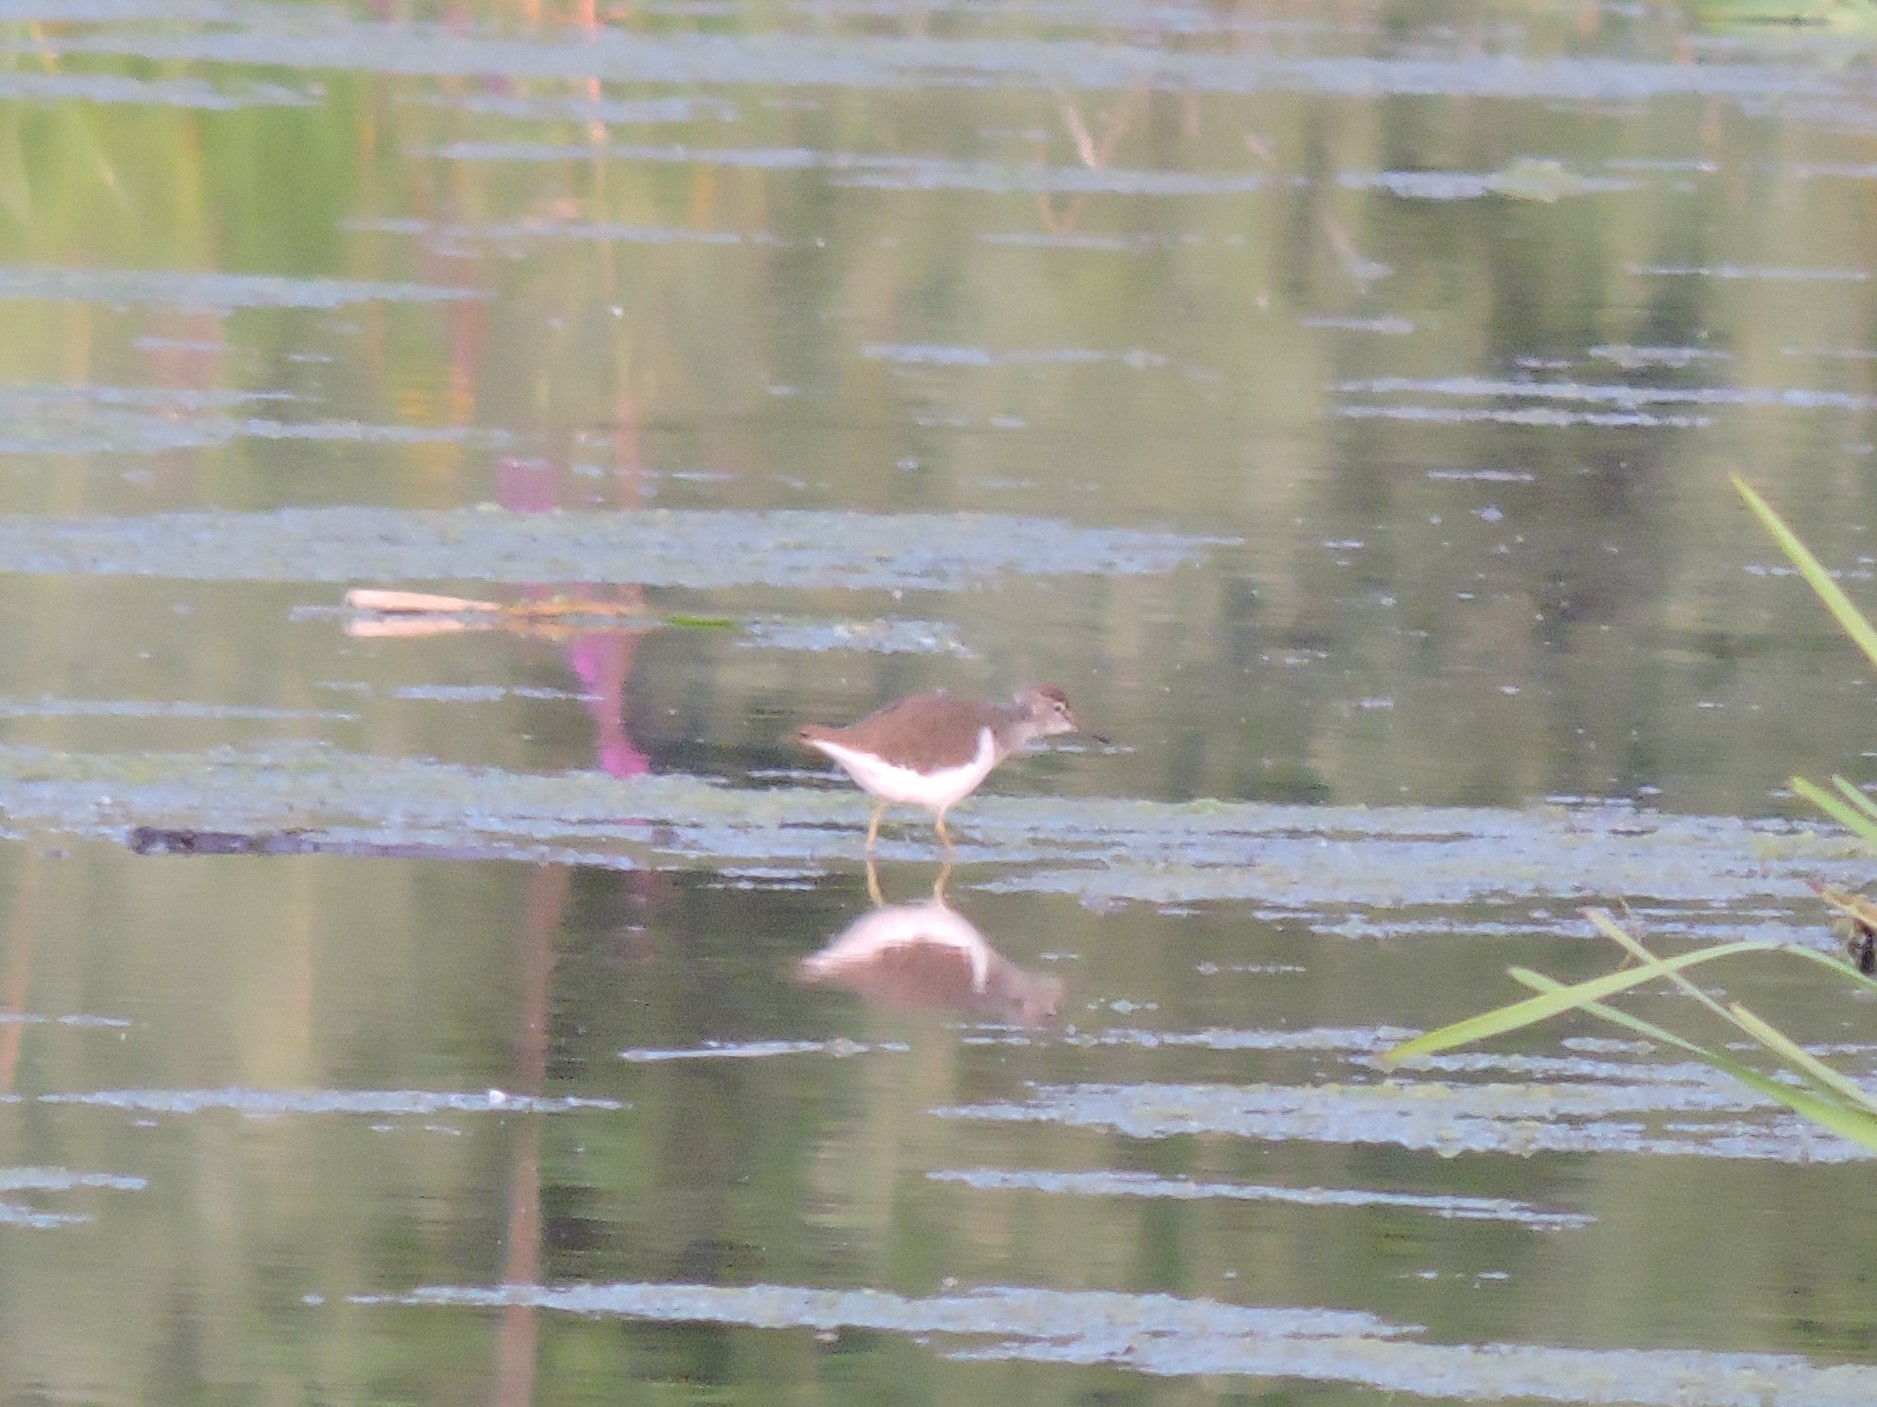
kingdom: Animalia
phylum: Chordata
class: Aves
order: Charadriiformes
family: Scolopacidae
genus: Actitis
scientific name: Actitis hypoleucos
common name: Common sandpiper
